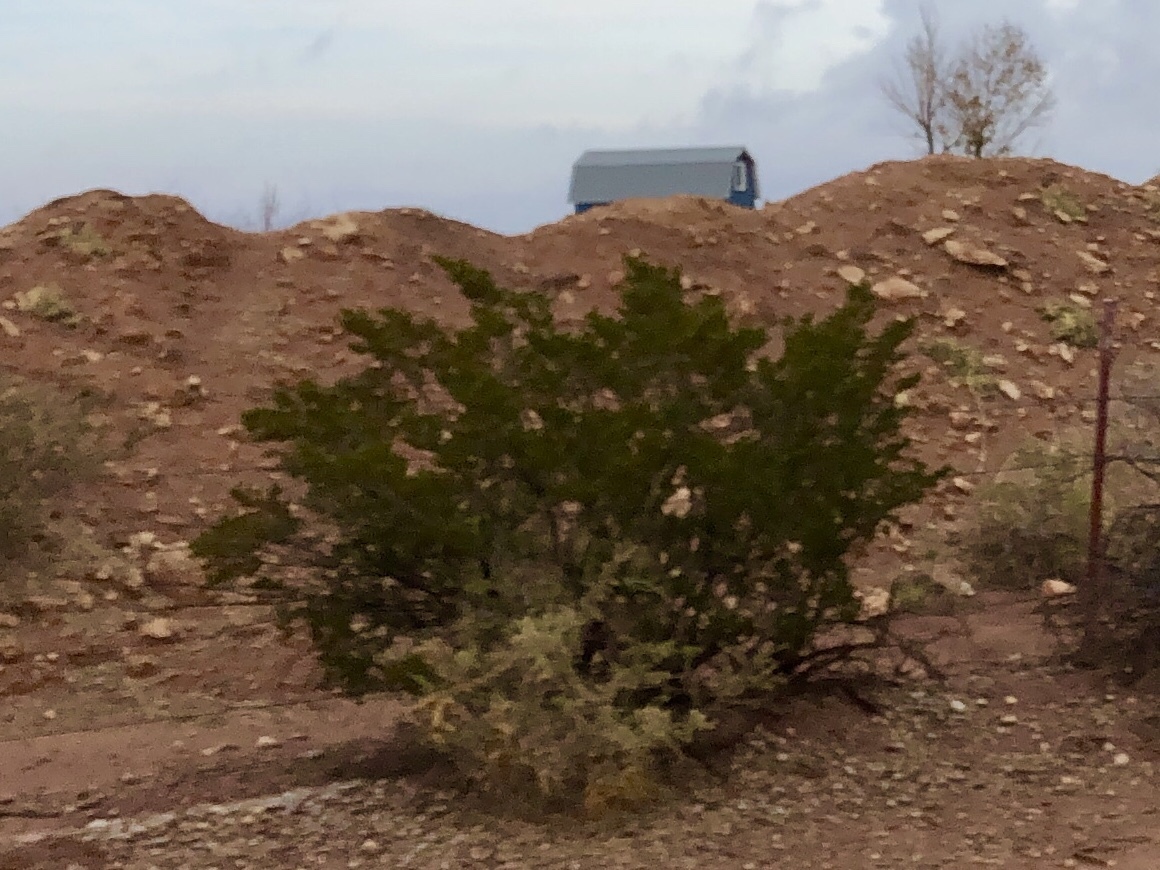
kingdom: Plantae
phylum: Tracheophyta
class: Magnoliopsida
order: Zygophyllales
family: Zygophyllaceae
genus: Larrea
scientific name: Larrea tridentata
